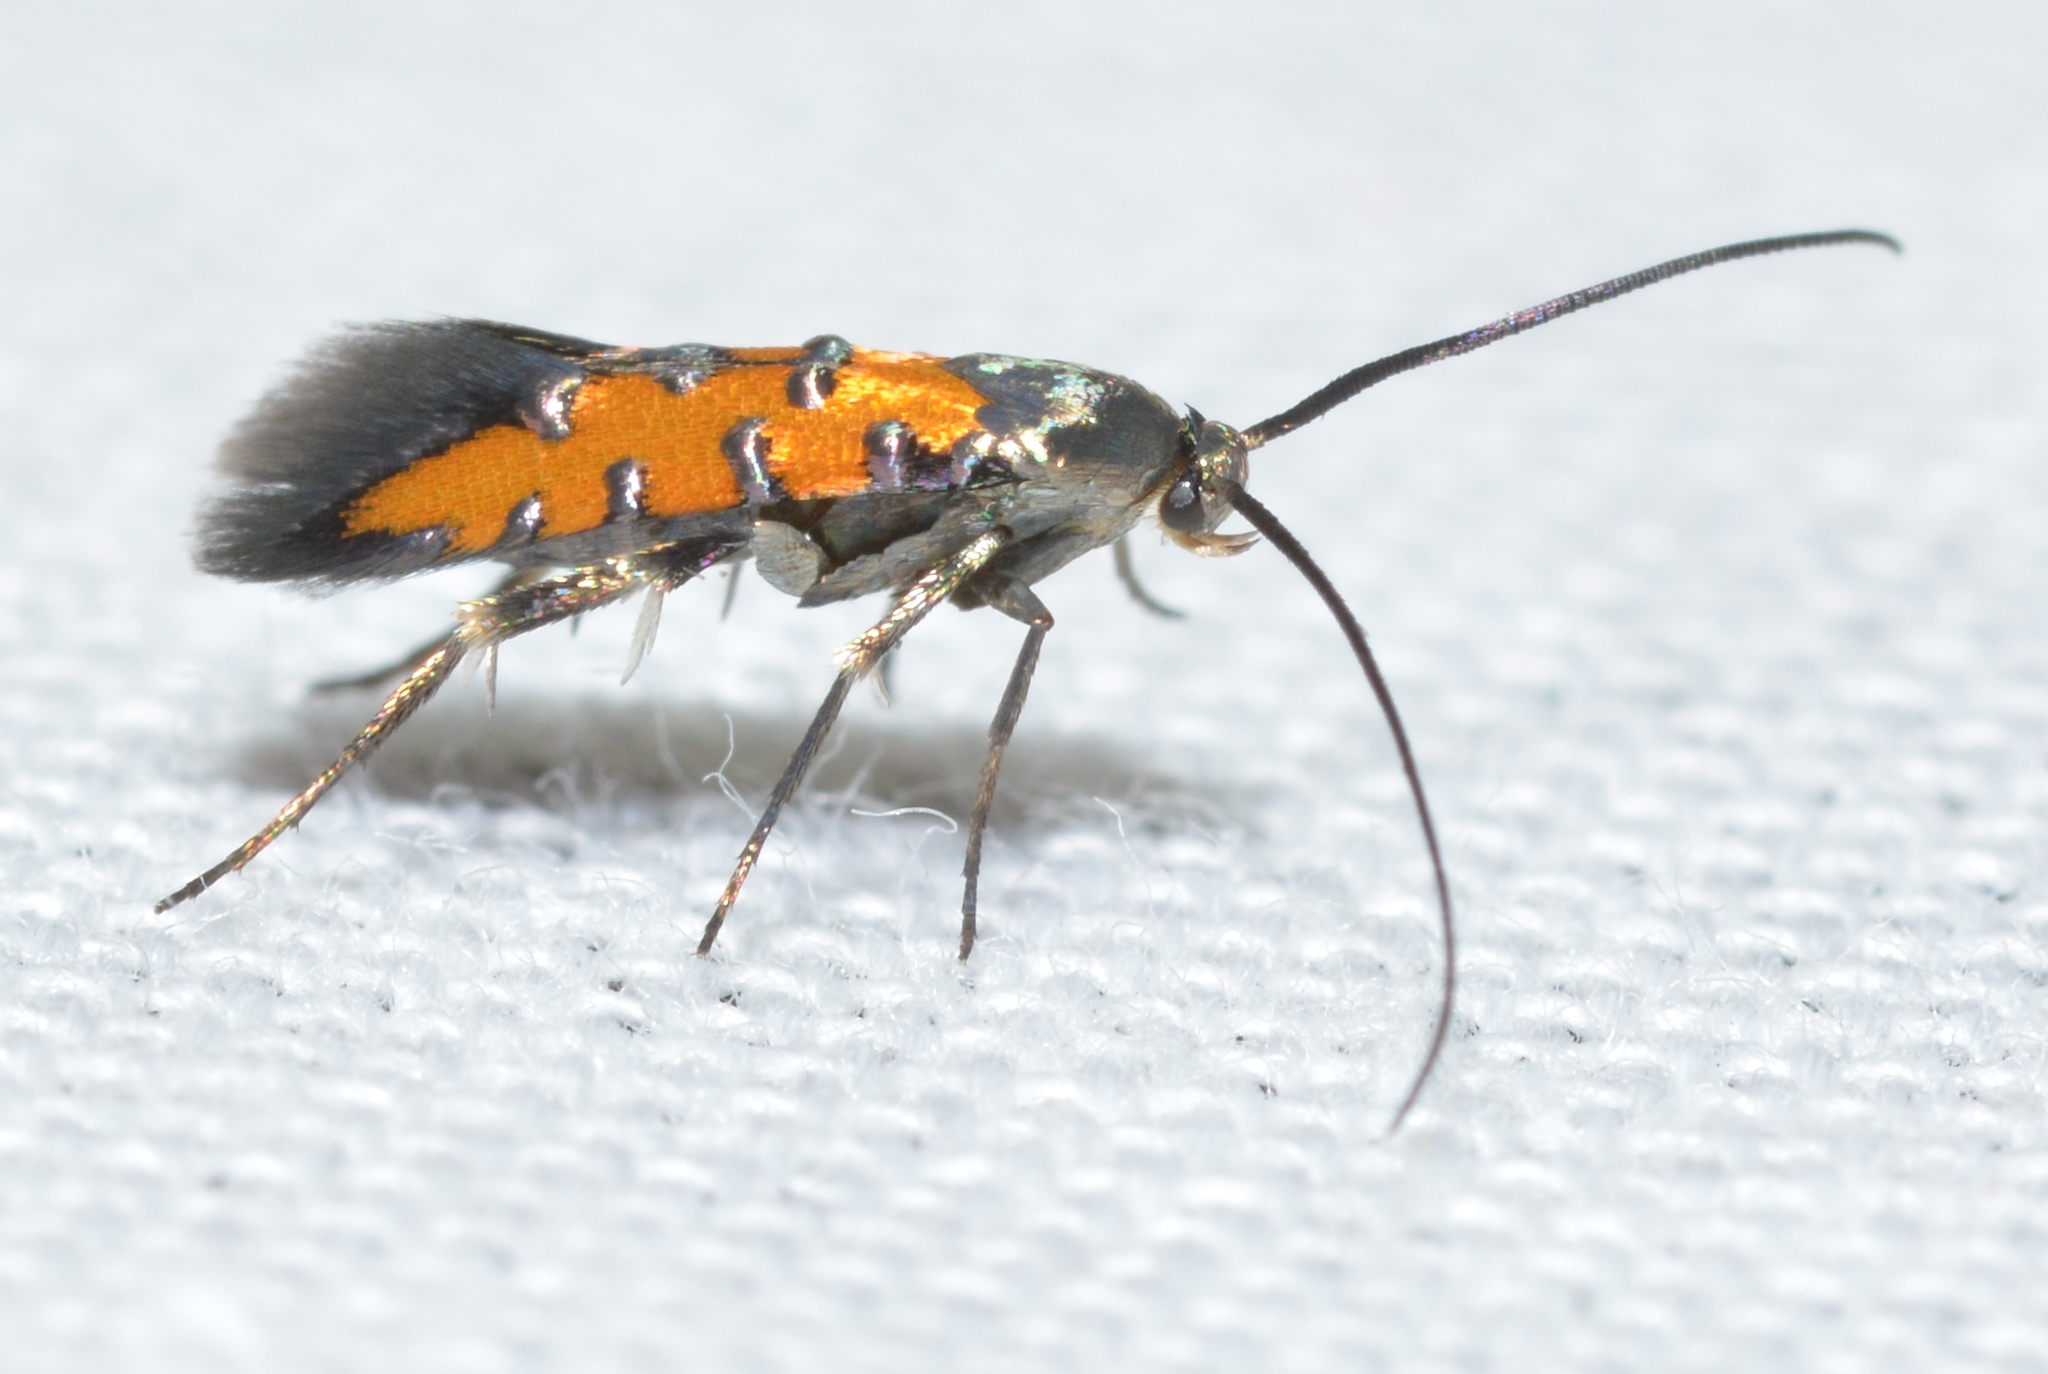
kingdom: Animalia
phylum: Arthropoda
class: Insecta
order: Lepidoptera
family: Heliodinidae
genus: Lamprolophus
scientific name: Lamprolophus Embola ionis
